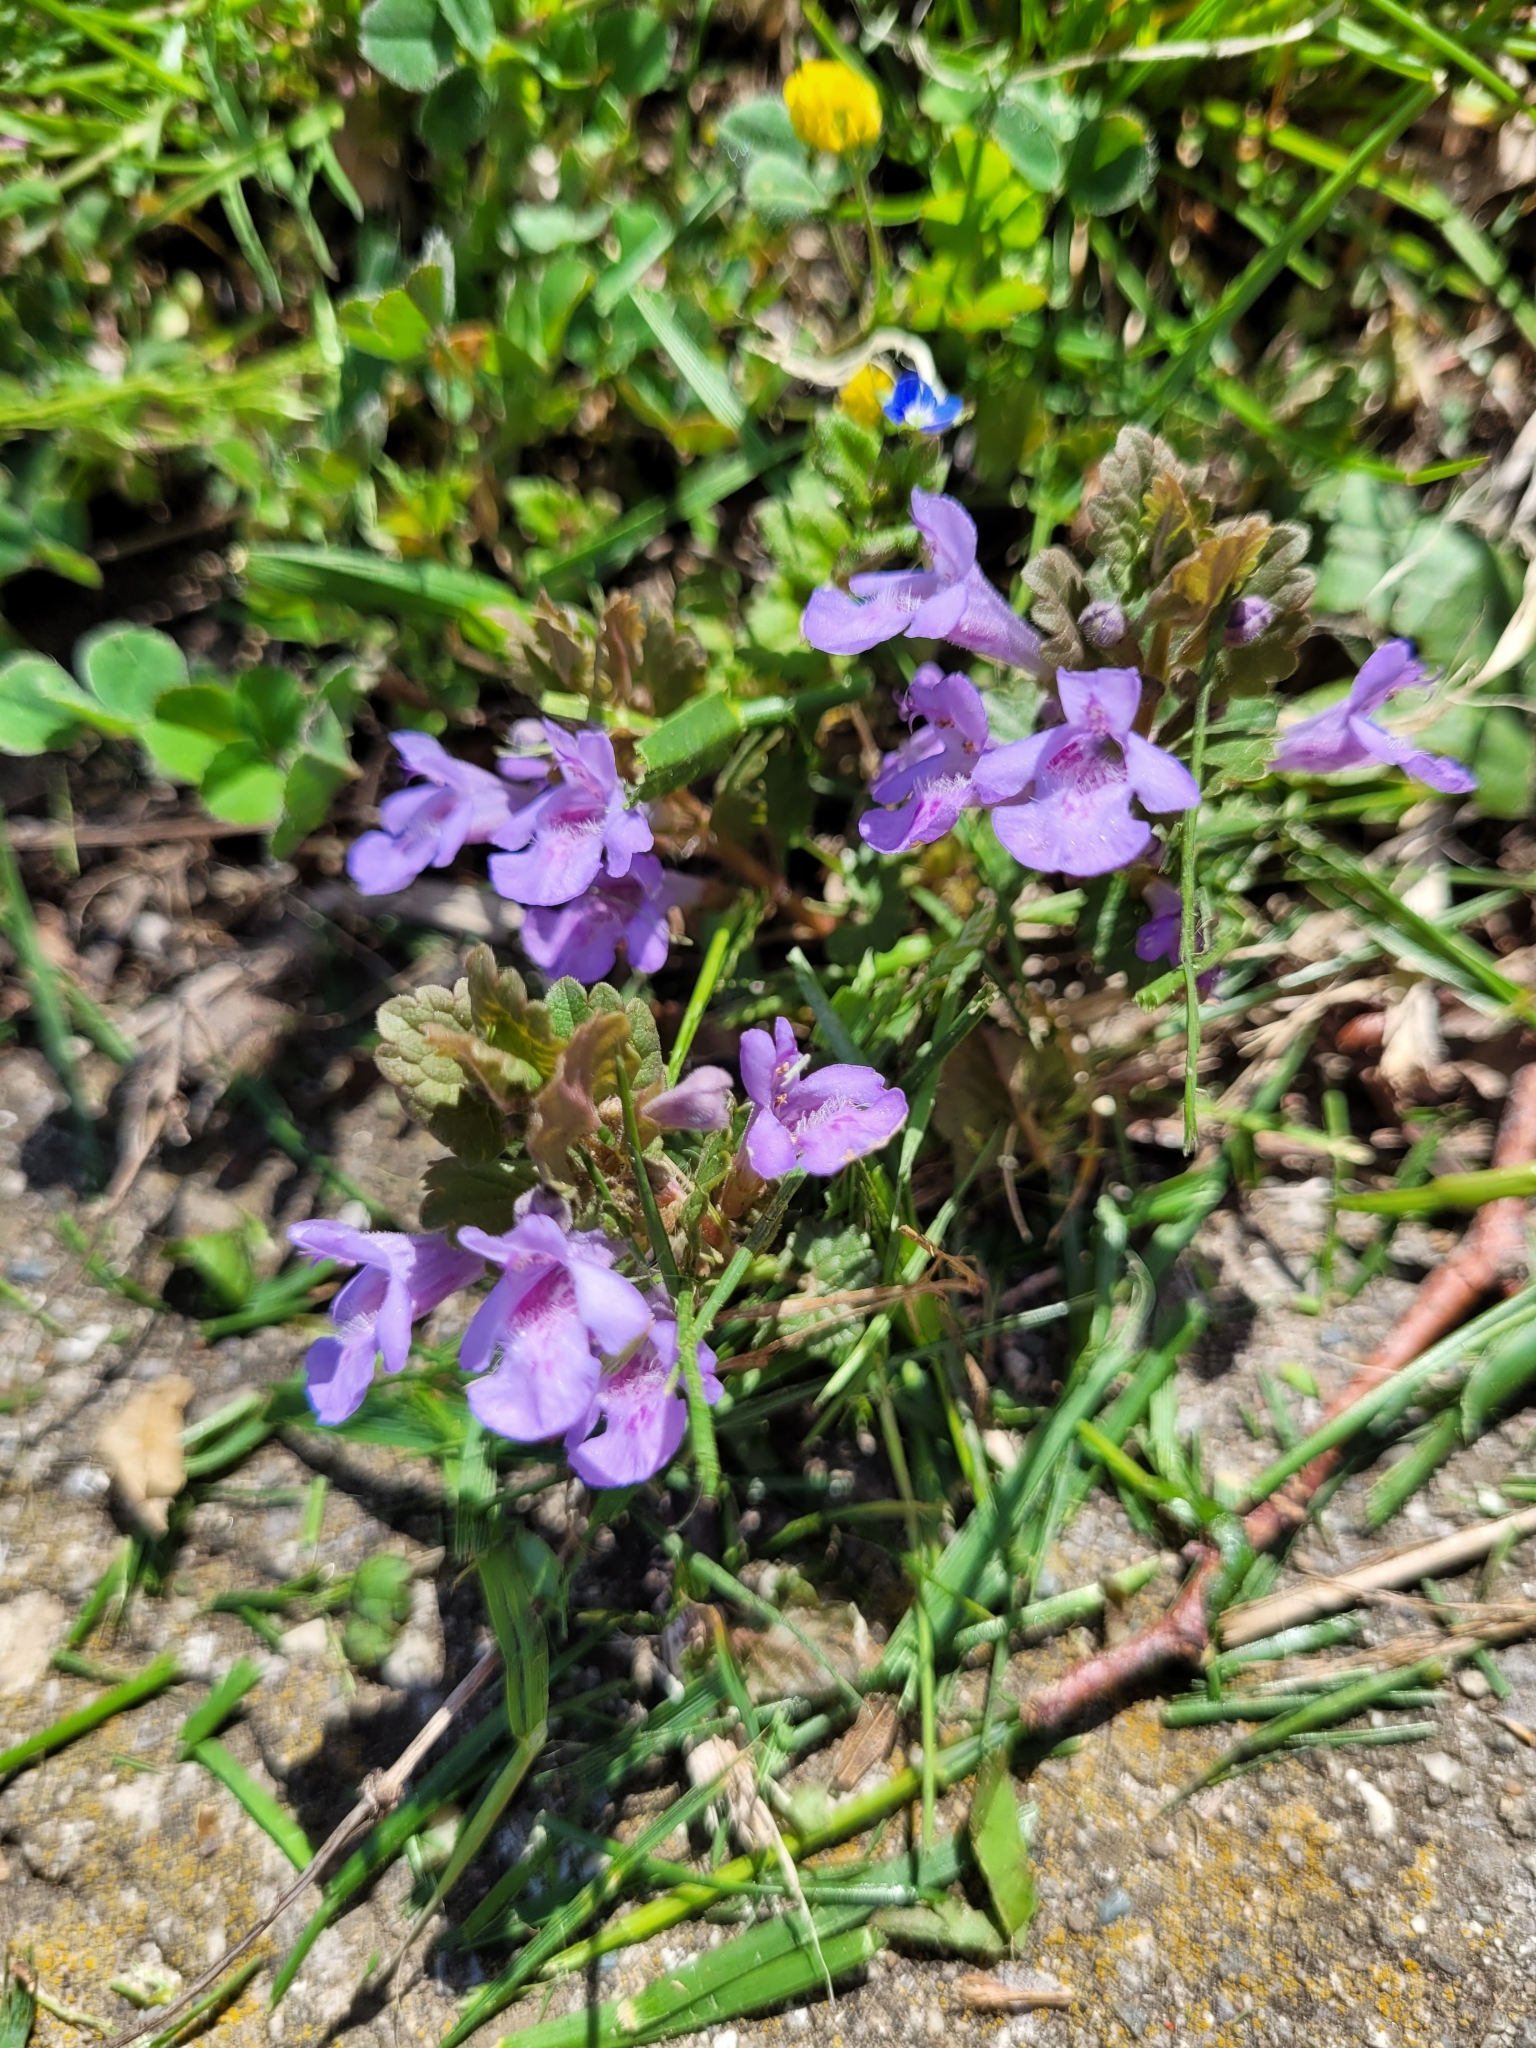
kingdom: Plantae
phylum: Tracheophyta
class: Magnoliopsida
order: Lamiales
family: Lamiaceae
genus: Glechoma
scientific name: Glechoma hederacea
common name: Ground ivy
